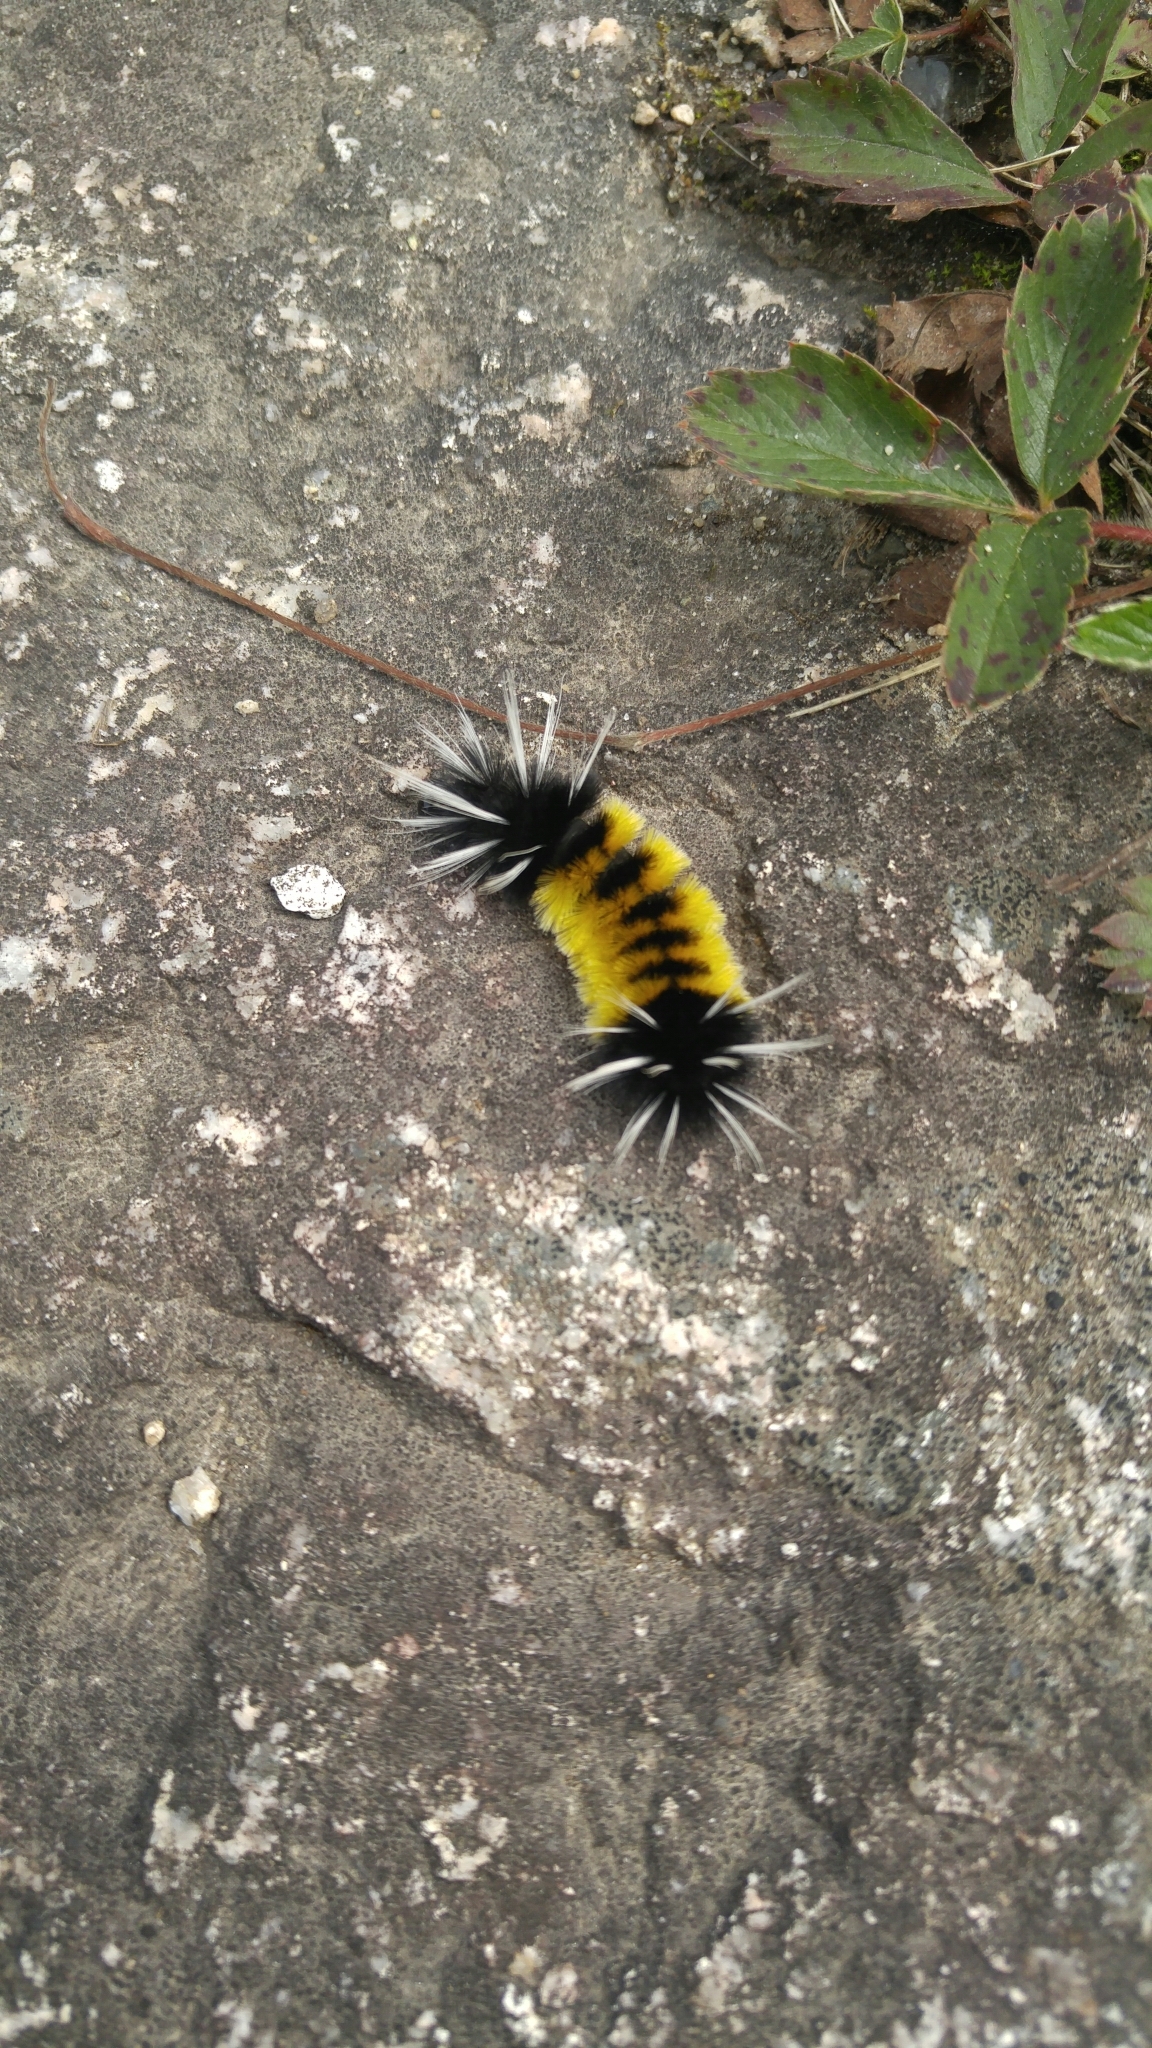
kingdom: Animalia
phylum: Arthropoda
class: Insecta
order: Lepidoptera
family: Erebidae
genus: Lophocampa
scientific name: Lophocampa maculata
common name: Spotted tussock moth
